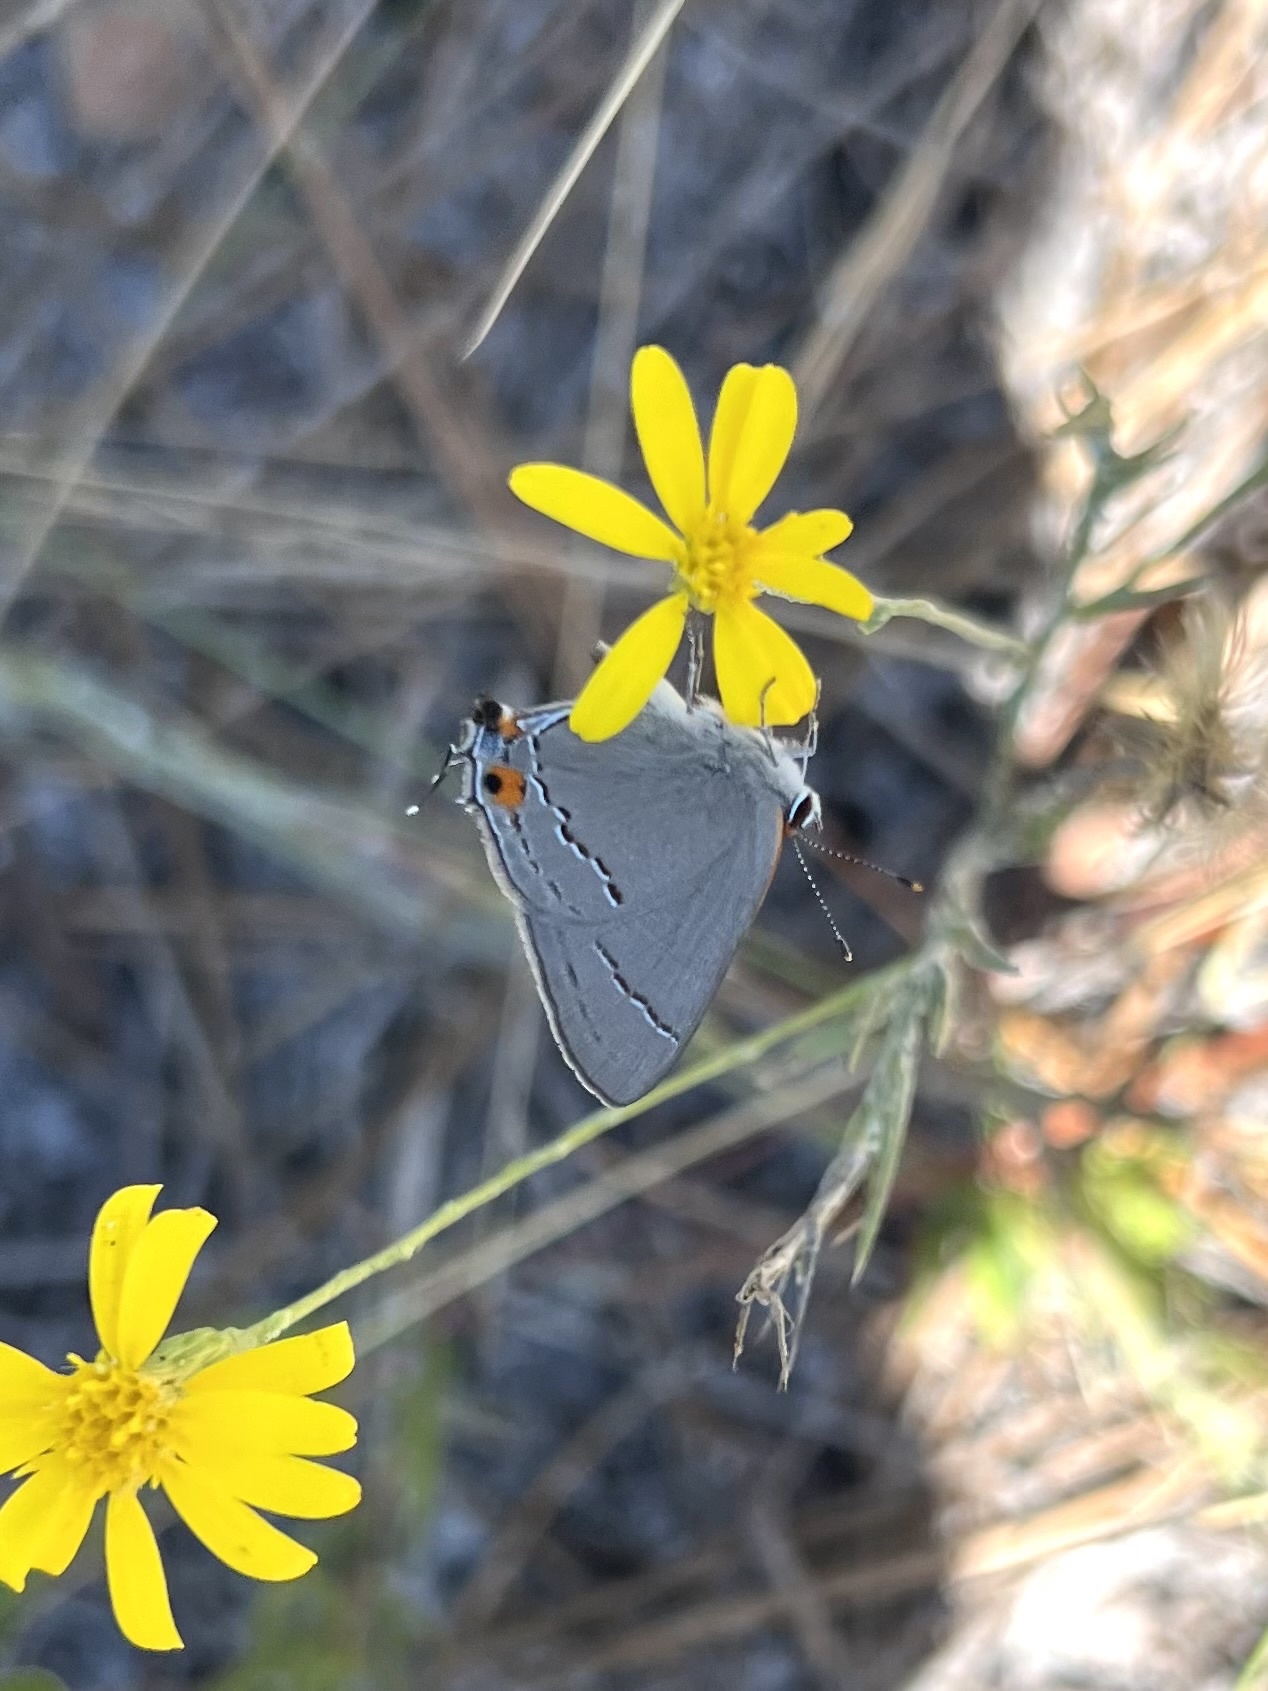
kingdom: Animalia
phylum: Arthropoda
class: Insecta
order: Lepidoptera
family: Lycaenidae
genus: Strymon
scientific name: Strymon melinus
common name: Gray hairstreak
